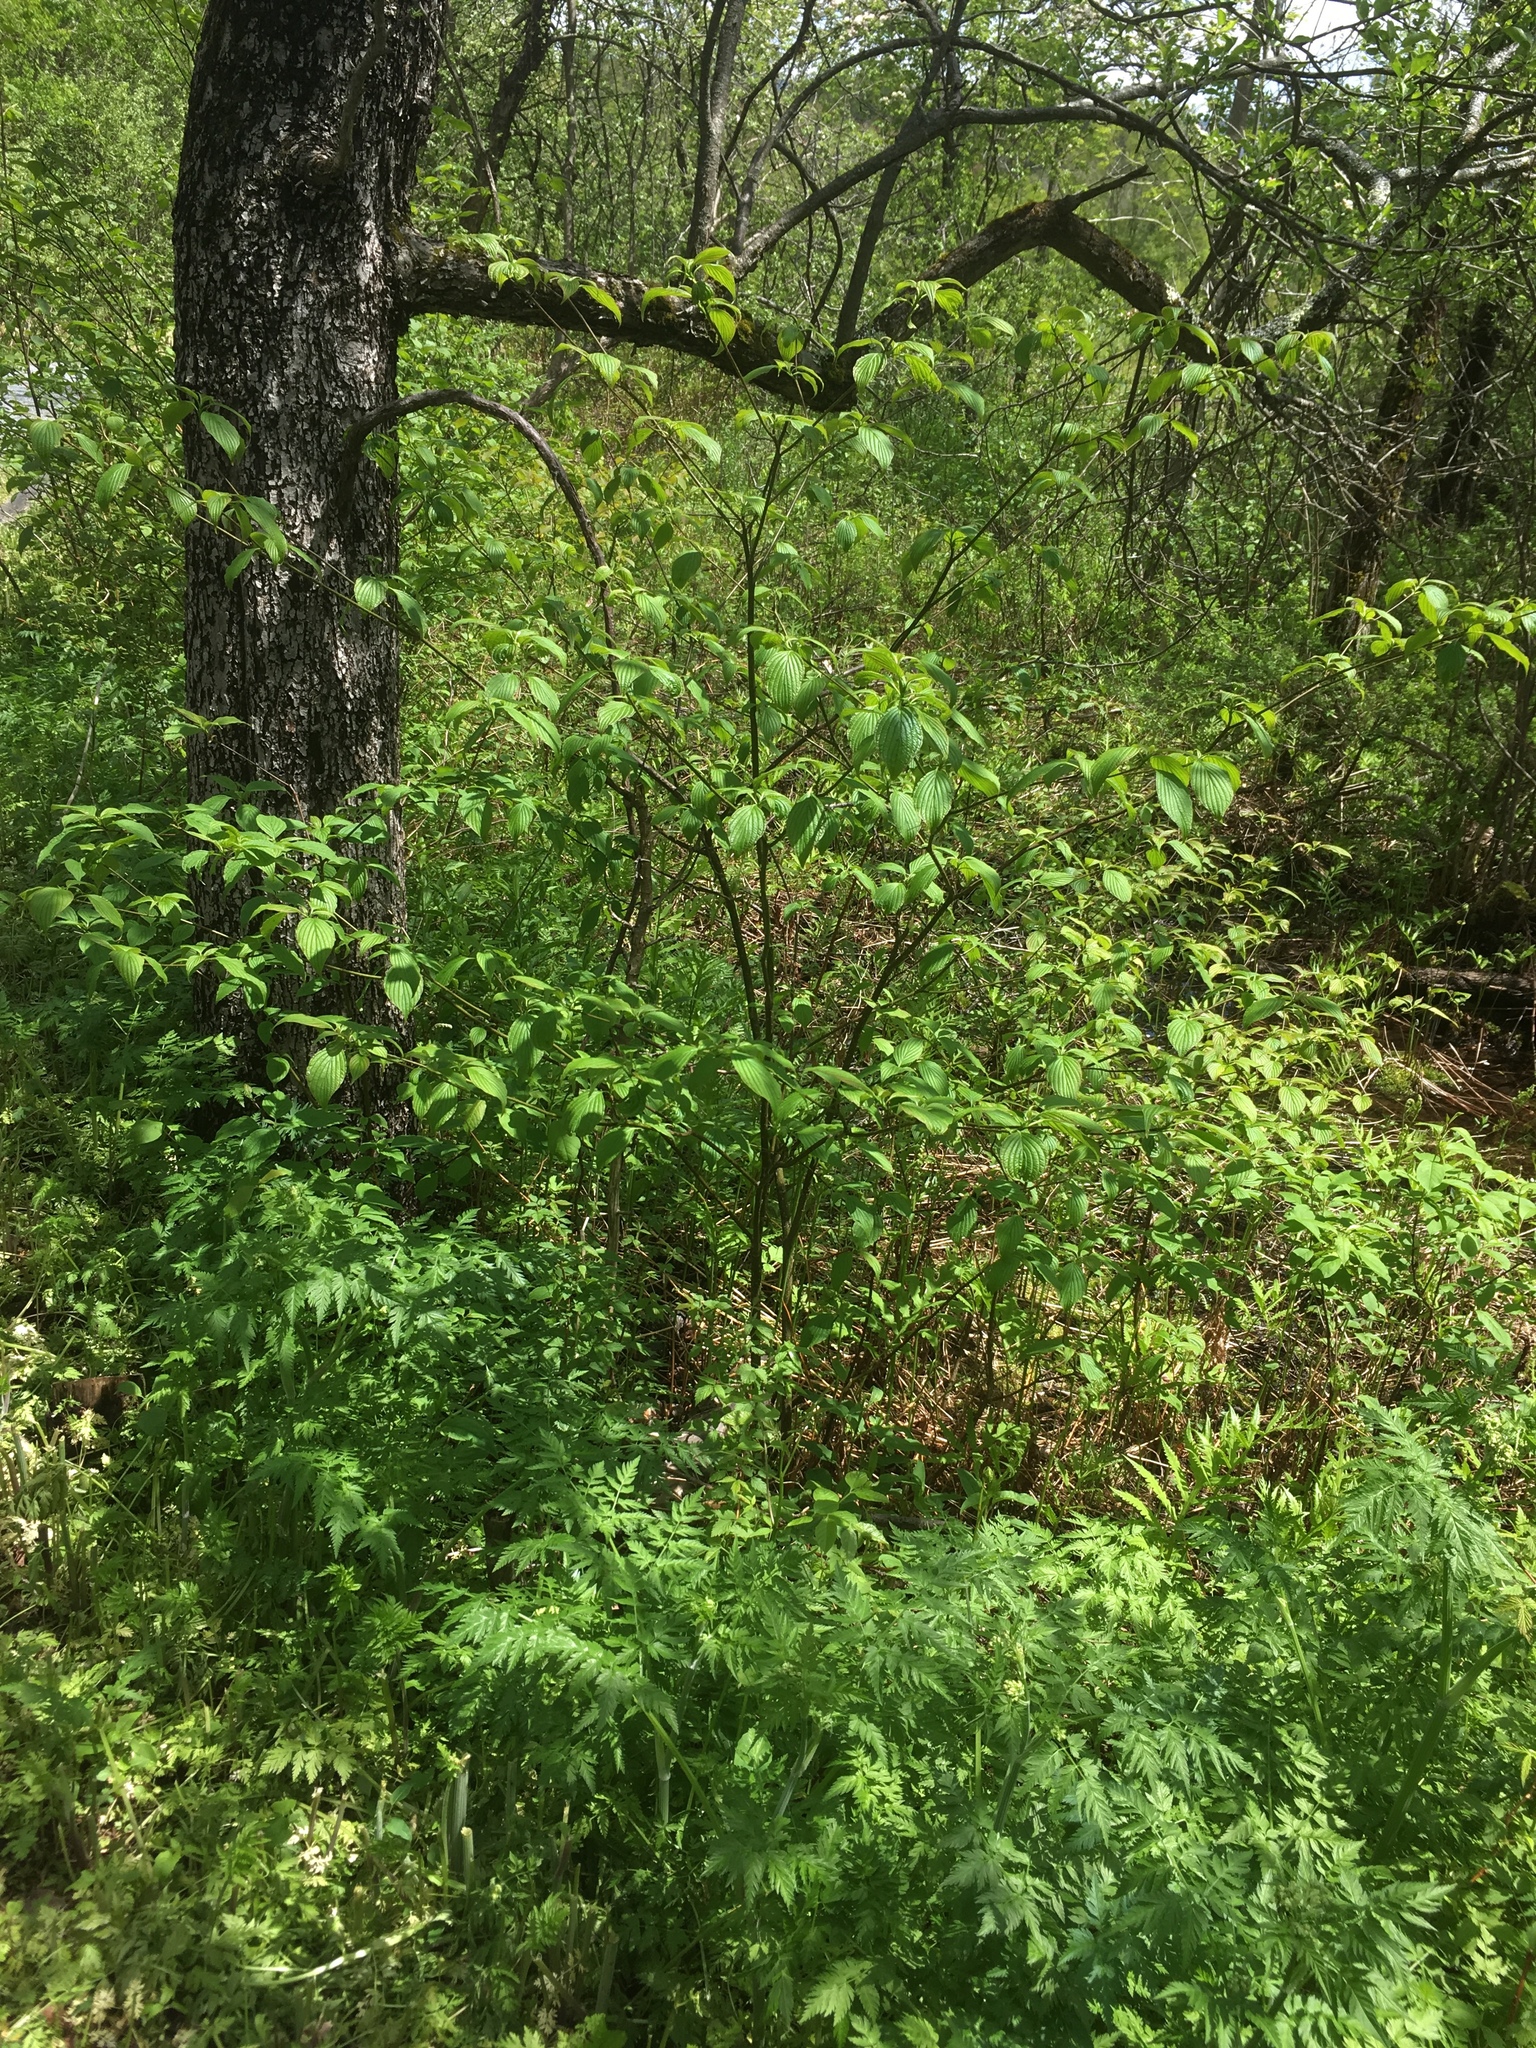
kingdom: Plantae
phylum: Tracheophyta
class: Magnoliopsida
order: Cornales
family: Cornaceae
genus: Cornus
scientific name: Cornus alternifolia
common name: Pagoda dogwood
